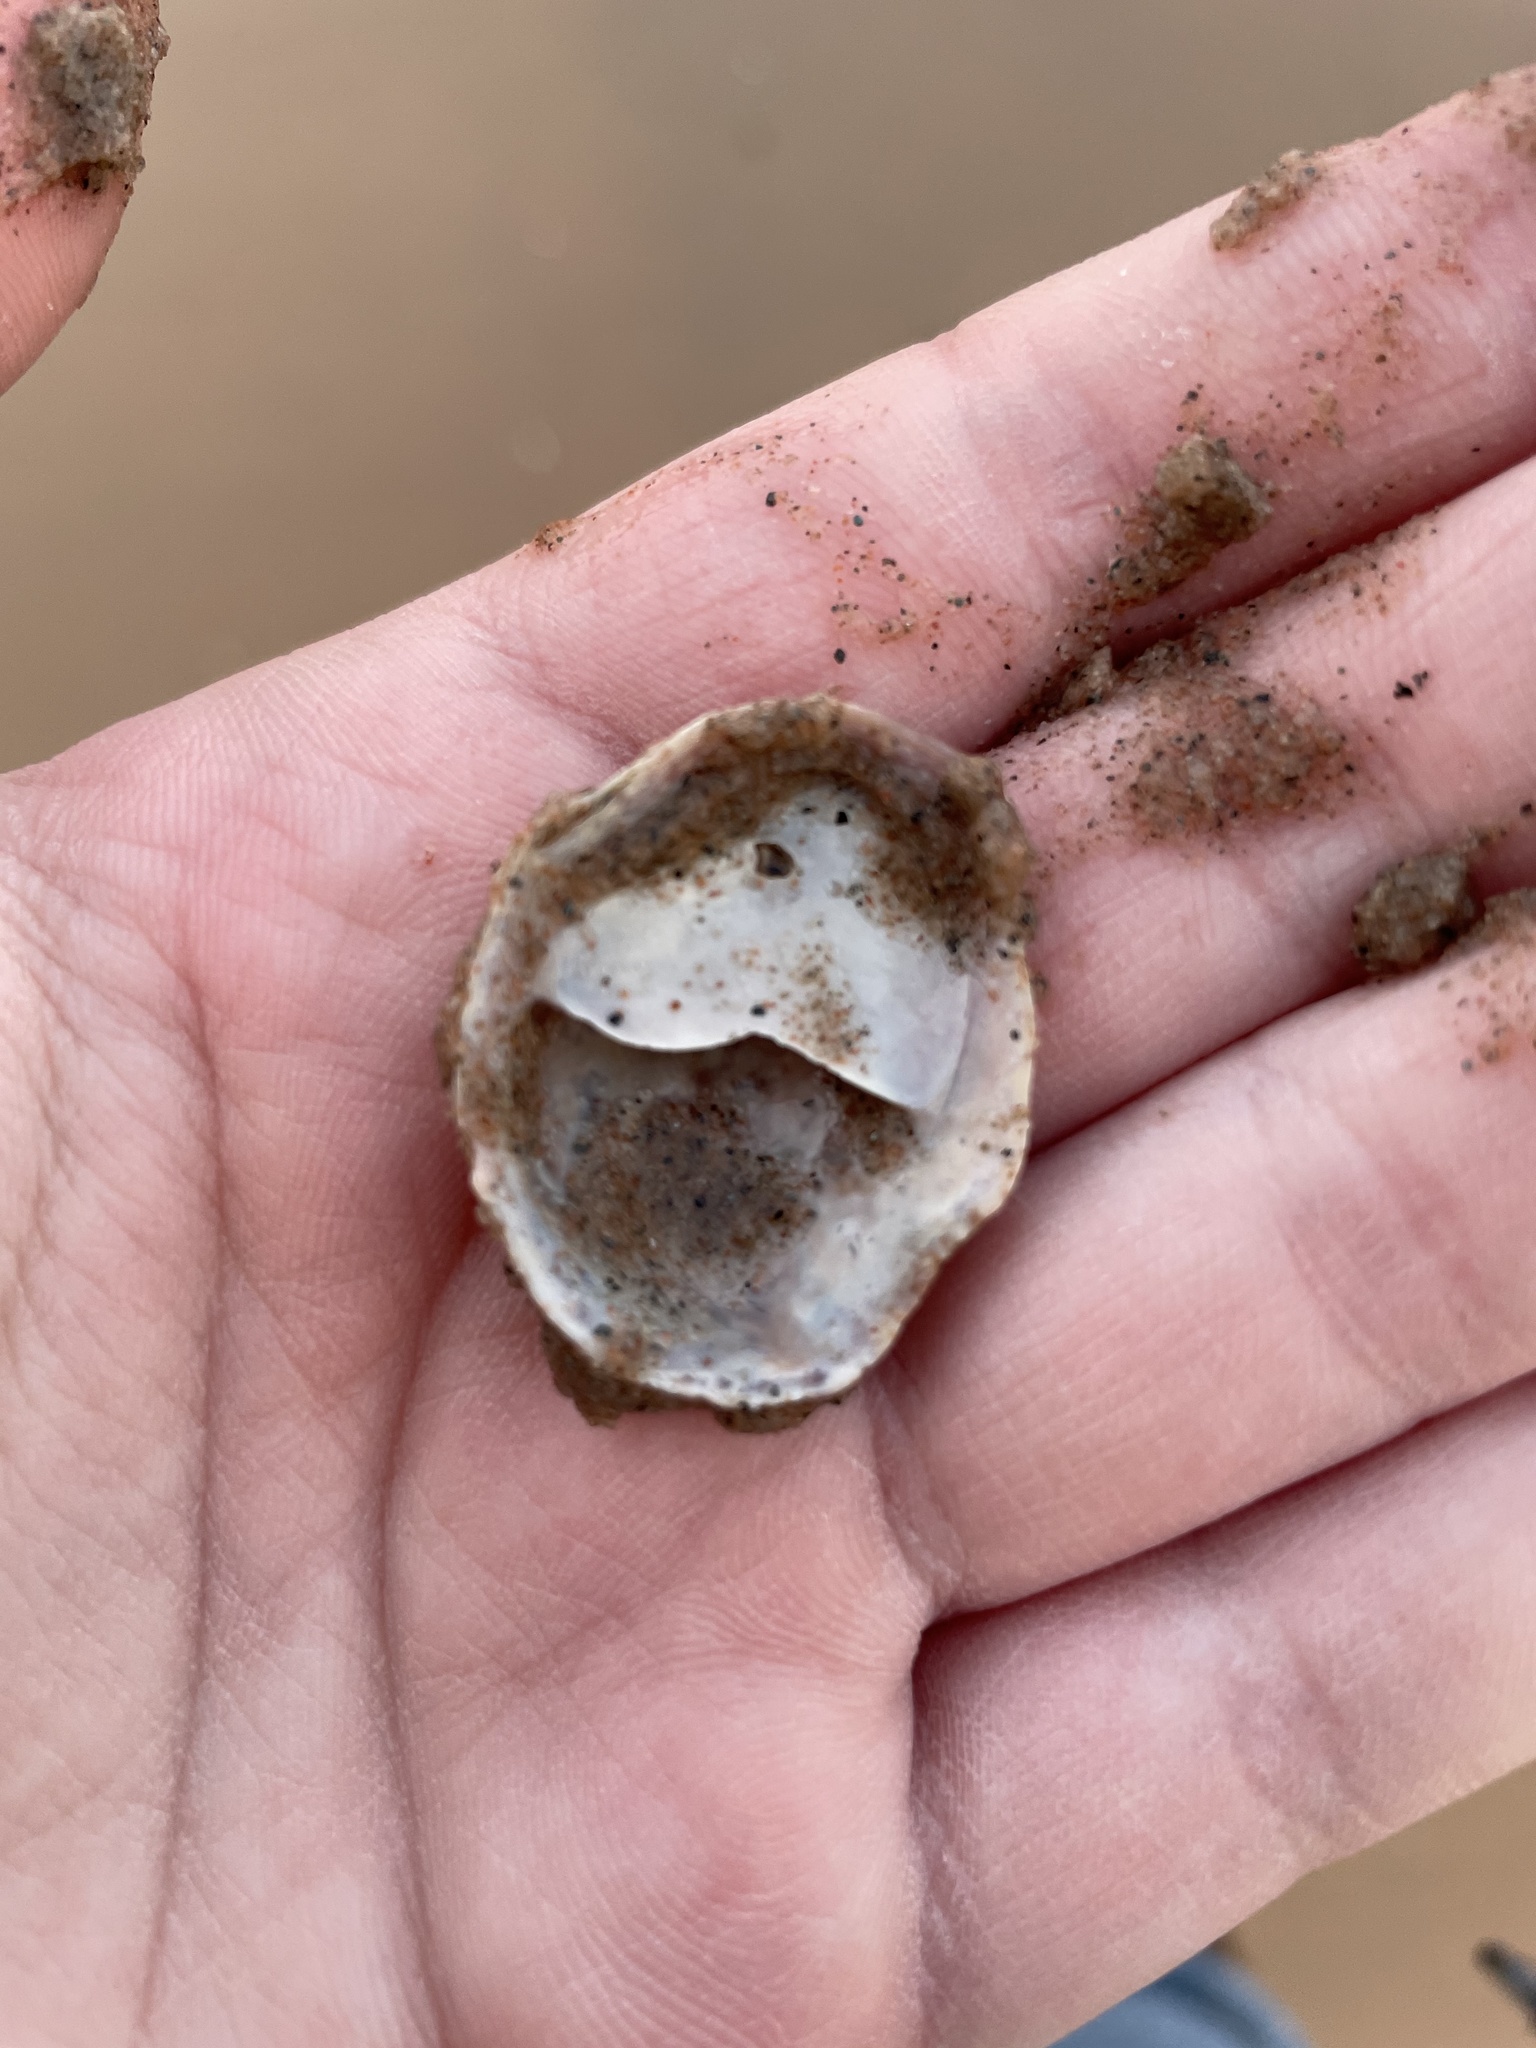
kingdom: Animalia
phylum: Mollusca
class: Gastropoda
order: Littorinimorpha
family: Calyptraeidae
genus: Crepidula
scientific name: Crepidula fornicata
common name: Slipper limpet
